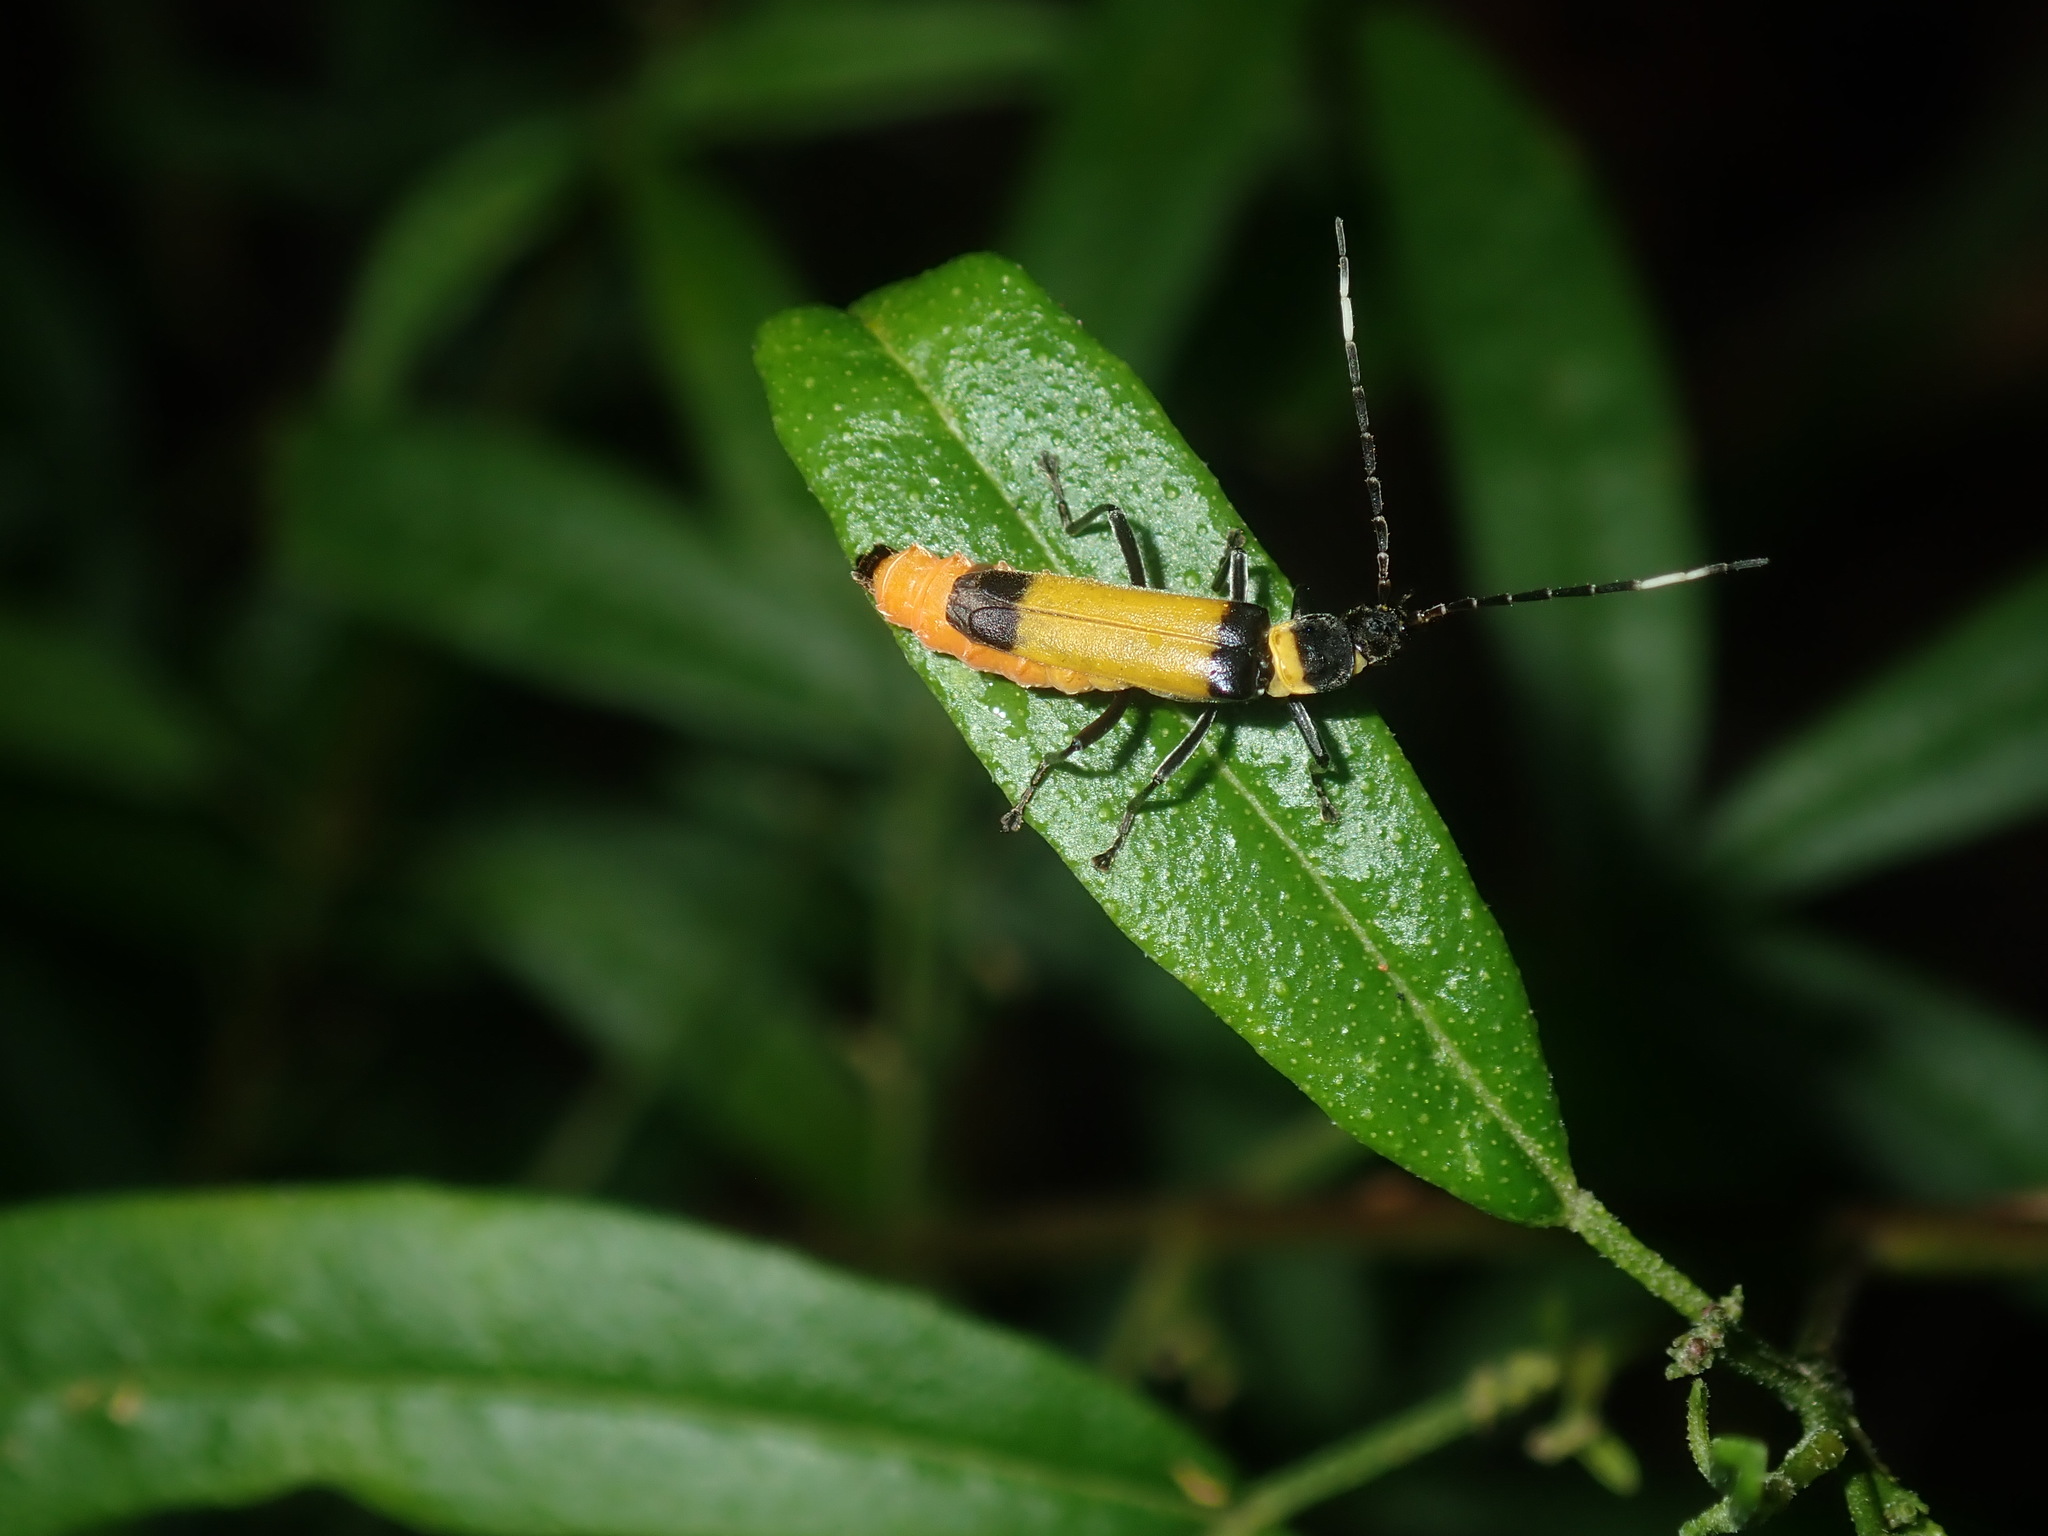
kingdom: Animalia
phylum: Arthropoda
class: Insecta
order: Coleoptera
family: Cantharidae
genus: Chauliognathus
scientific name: Chauliognathus
